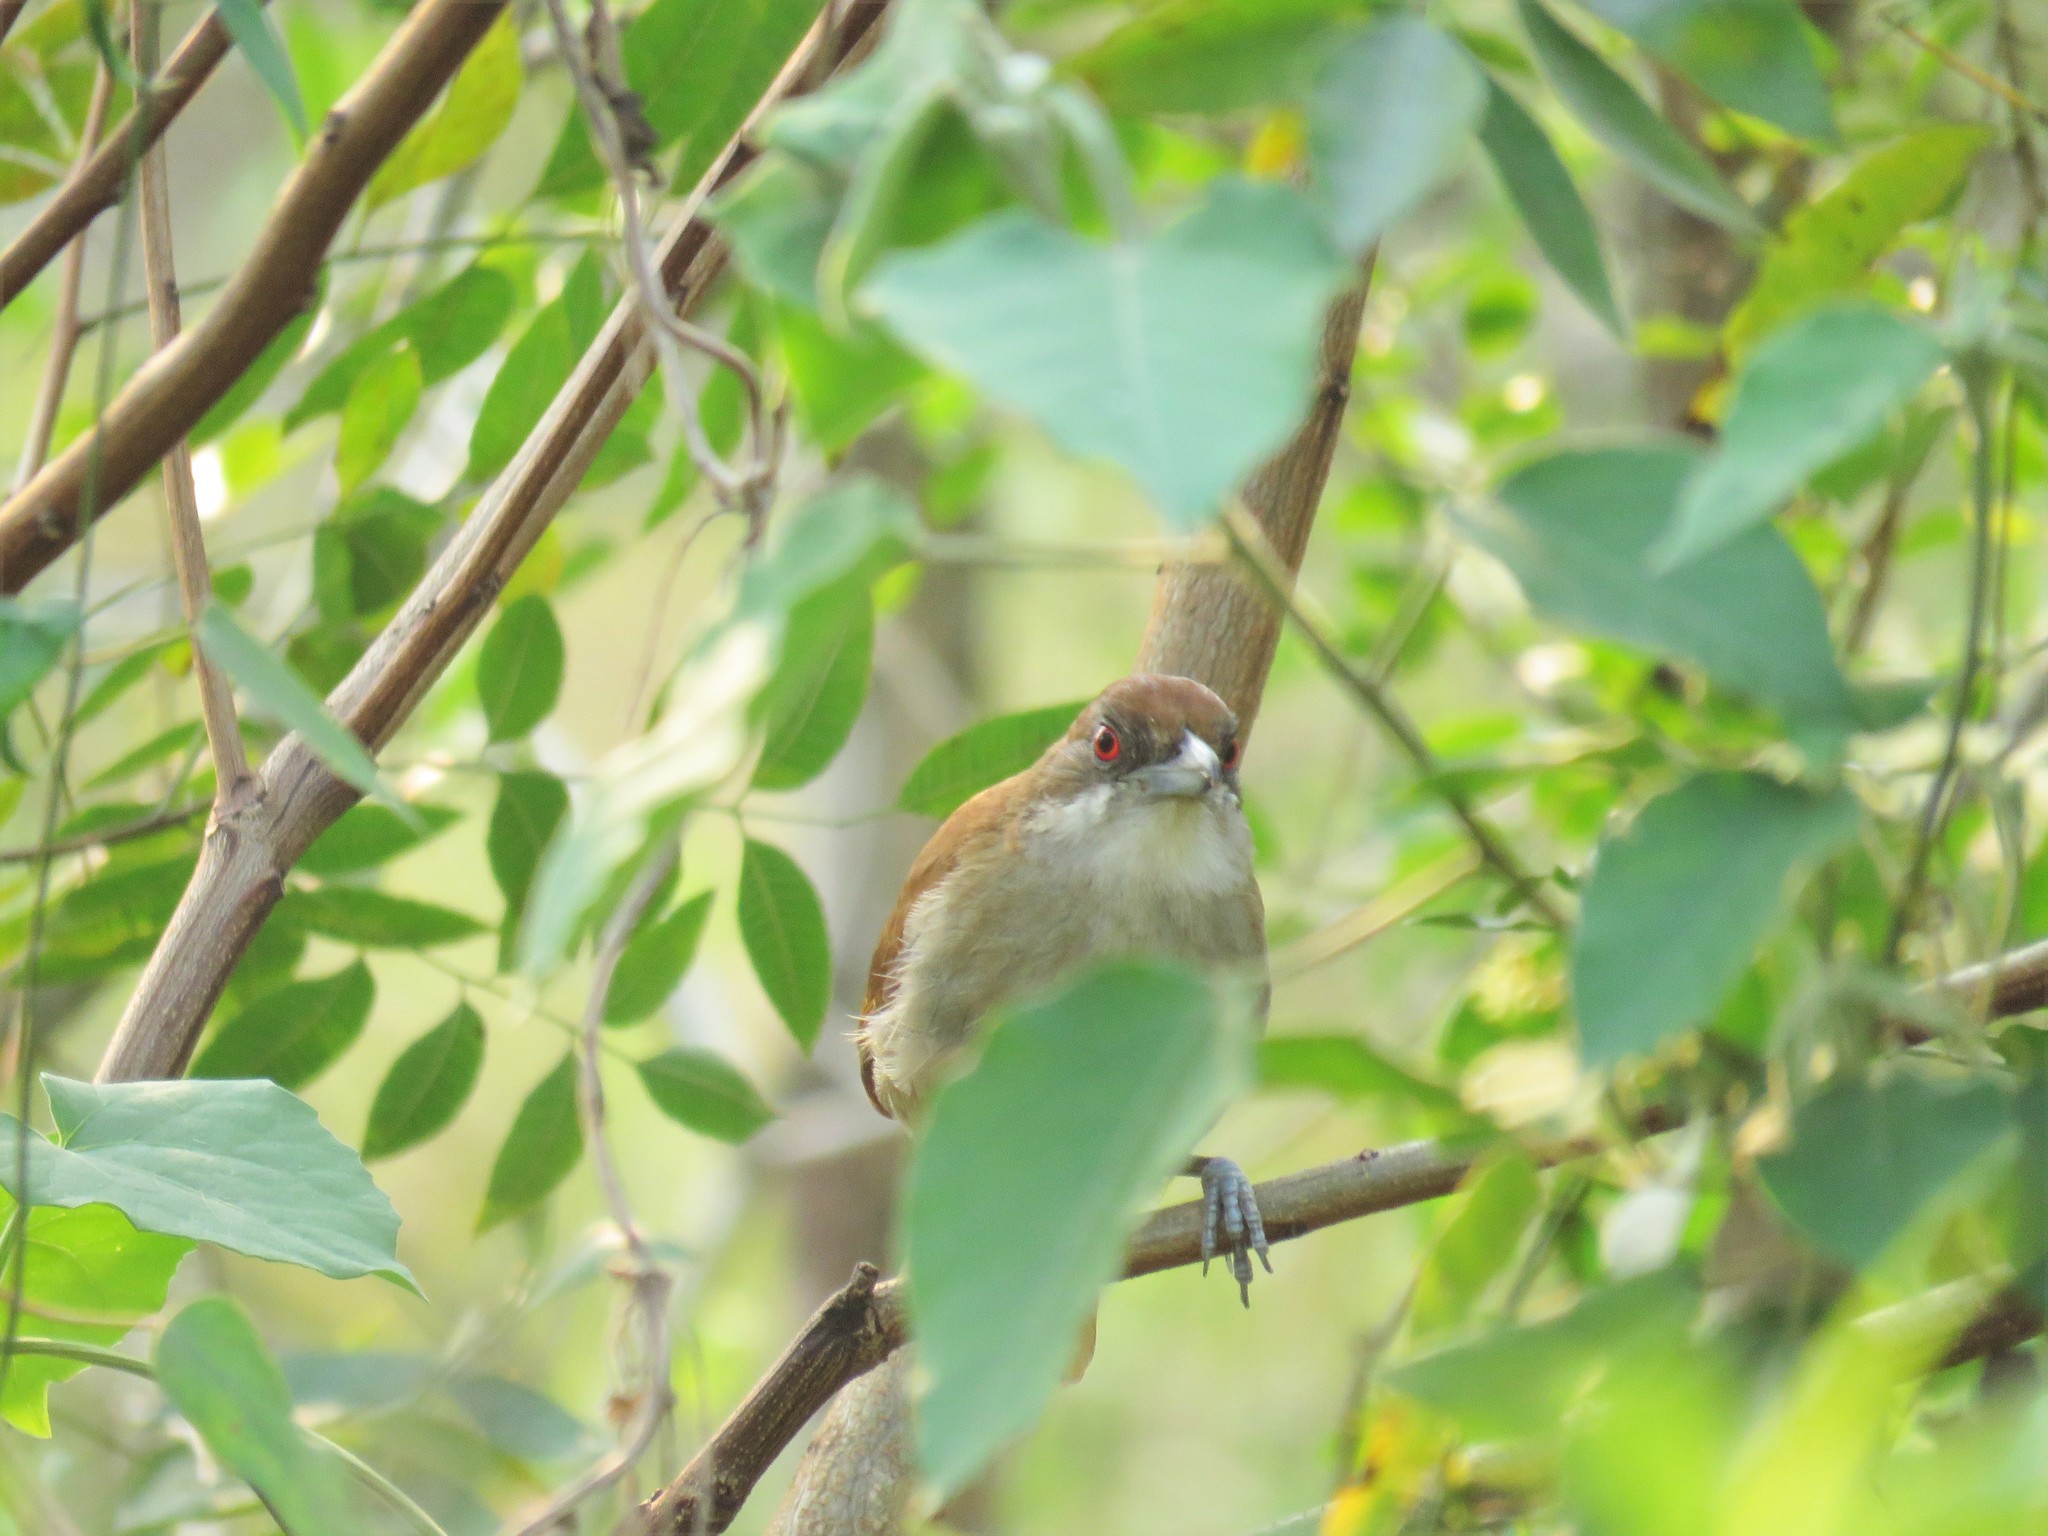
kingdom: Animalia
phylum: Chordata
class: Aves
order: Passeriformes
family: Thamnophilidae
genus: Taraba
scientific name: Taraba major
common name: Great antshrike
